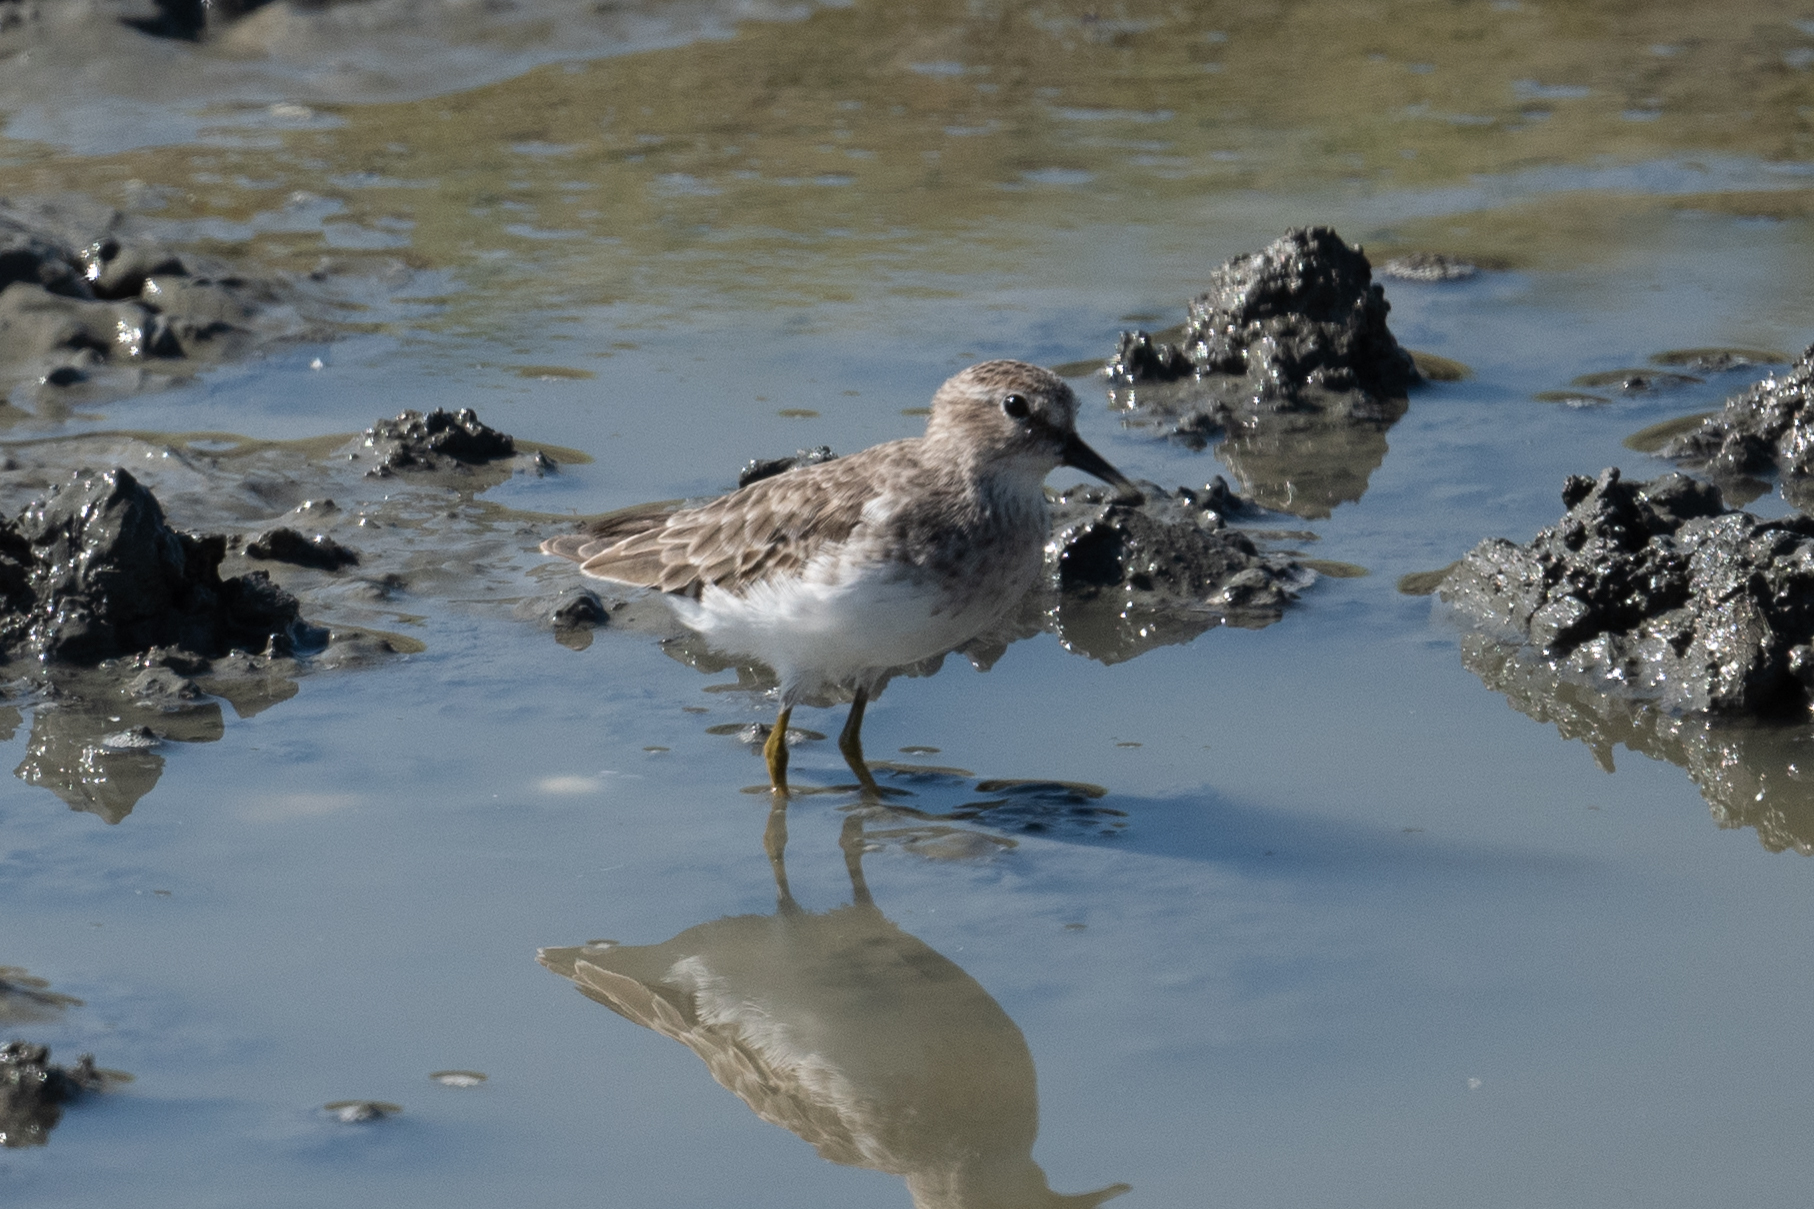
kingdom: Animalia
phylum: Chordata
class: Aves
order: Charadriiformes
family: Scolopacidae
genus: Calidris
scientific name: Calidris minutilla
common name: Least sandpiper
